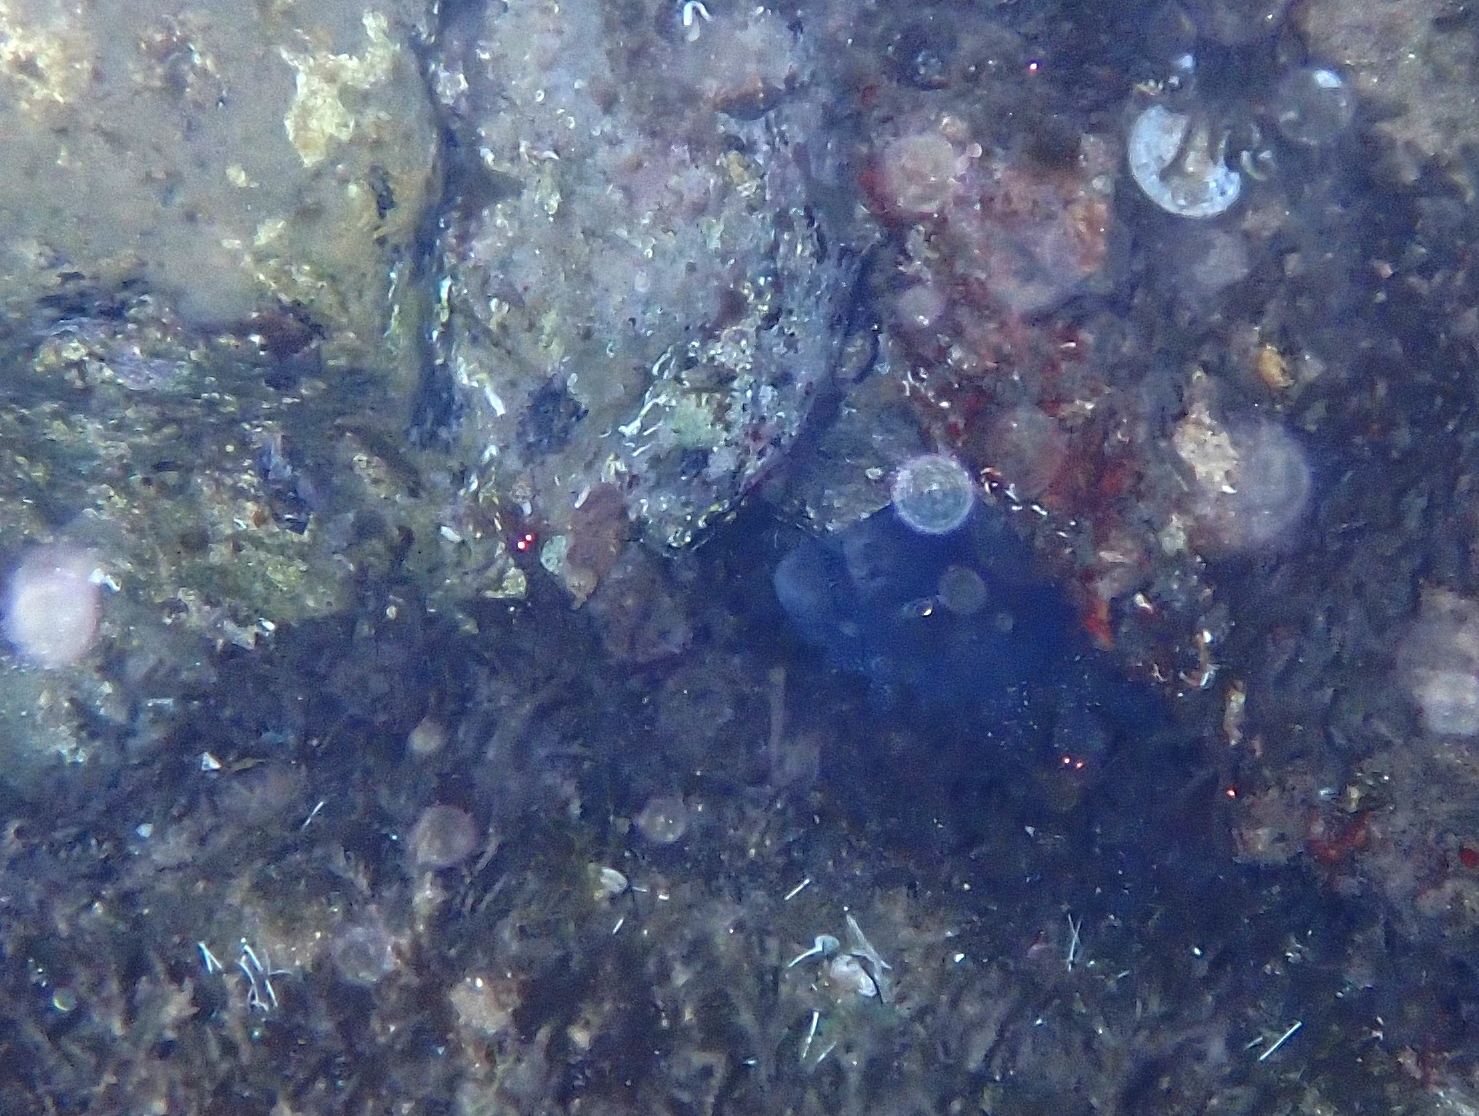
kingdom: Animalia
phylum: Chordata
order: Anguilliformes
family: Muraenidae
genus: Muraena
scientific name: Muraena helena
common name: Mediterranean moray
